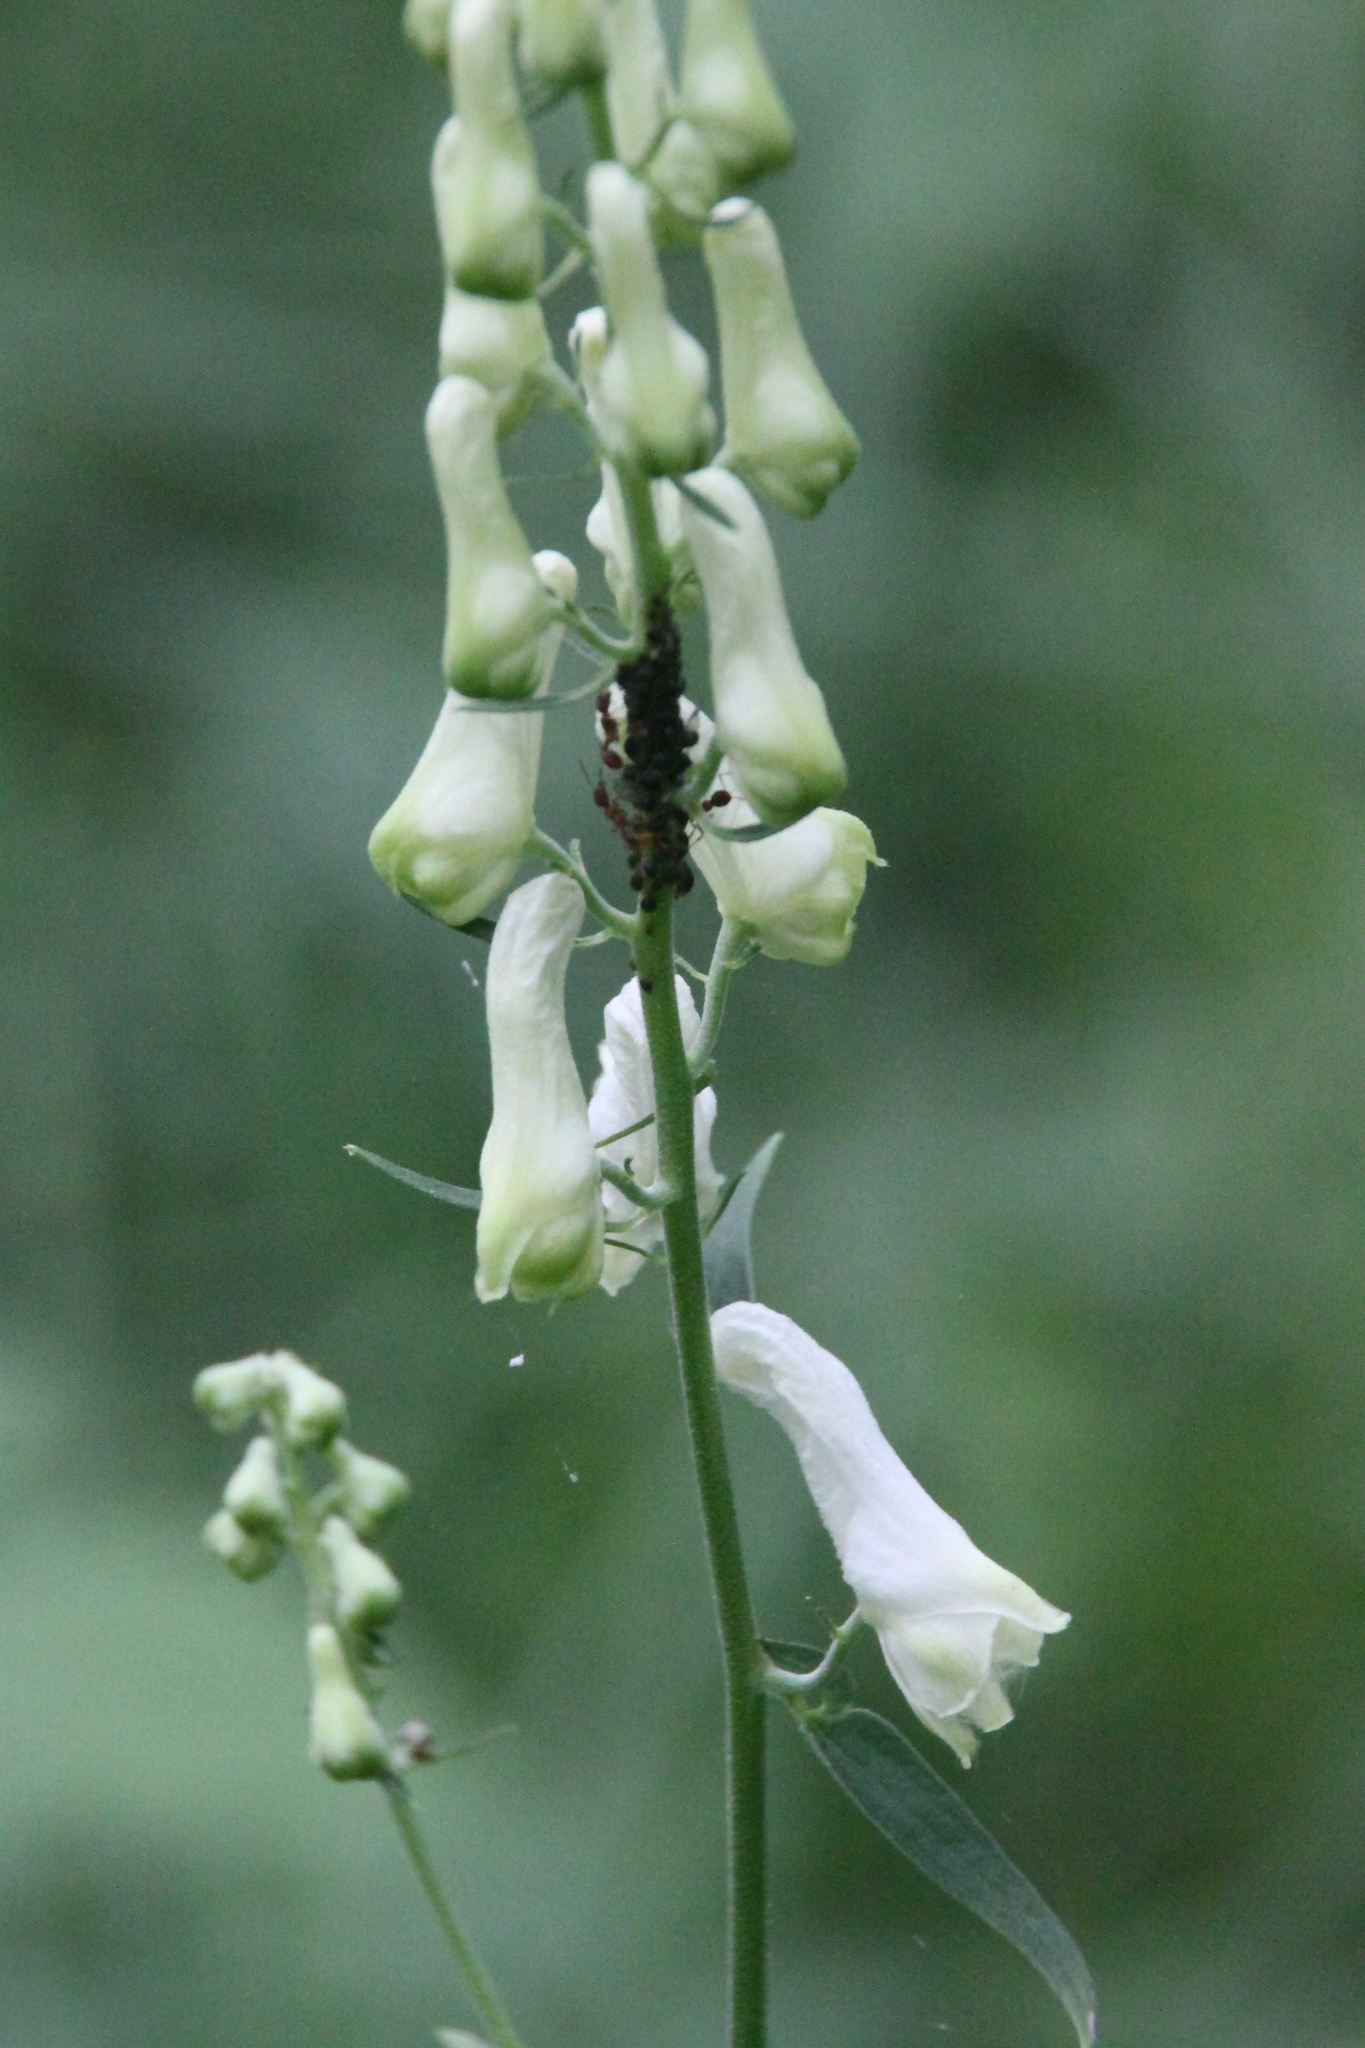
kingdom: Plantae
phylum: Tracheophyta
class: Magnoliopsida
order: Ranunculales
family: Ranunculaceae
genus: Aconitum
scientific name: Aconitum lasiostomum
